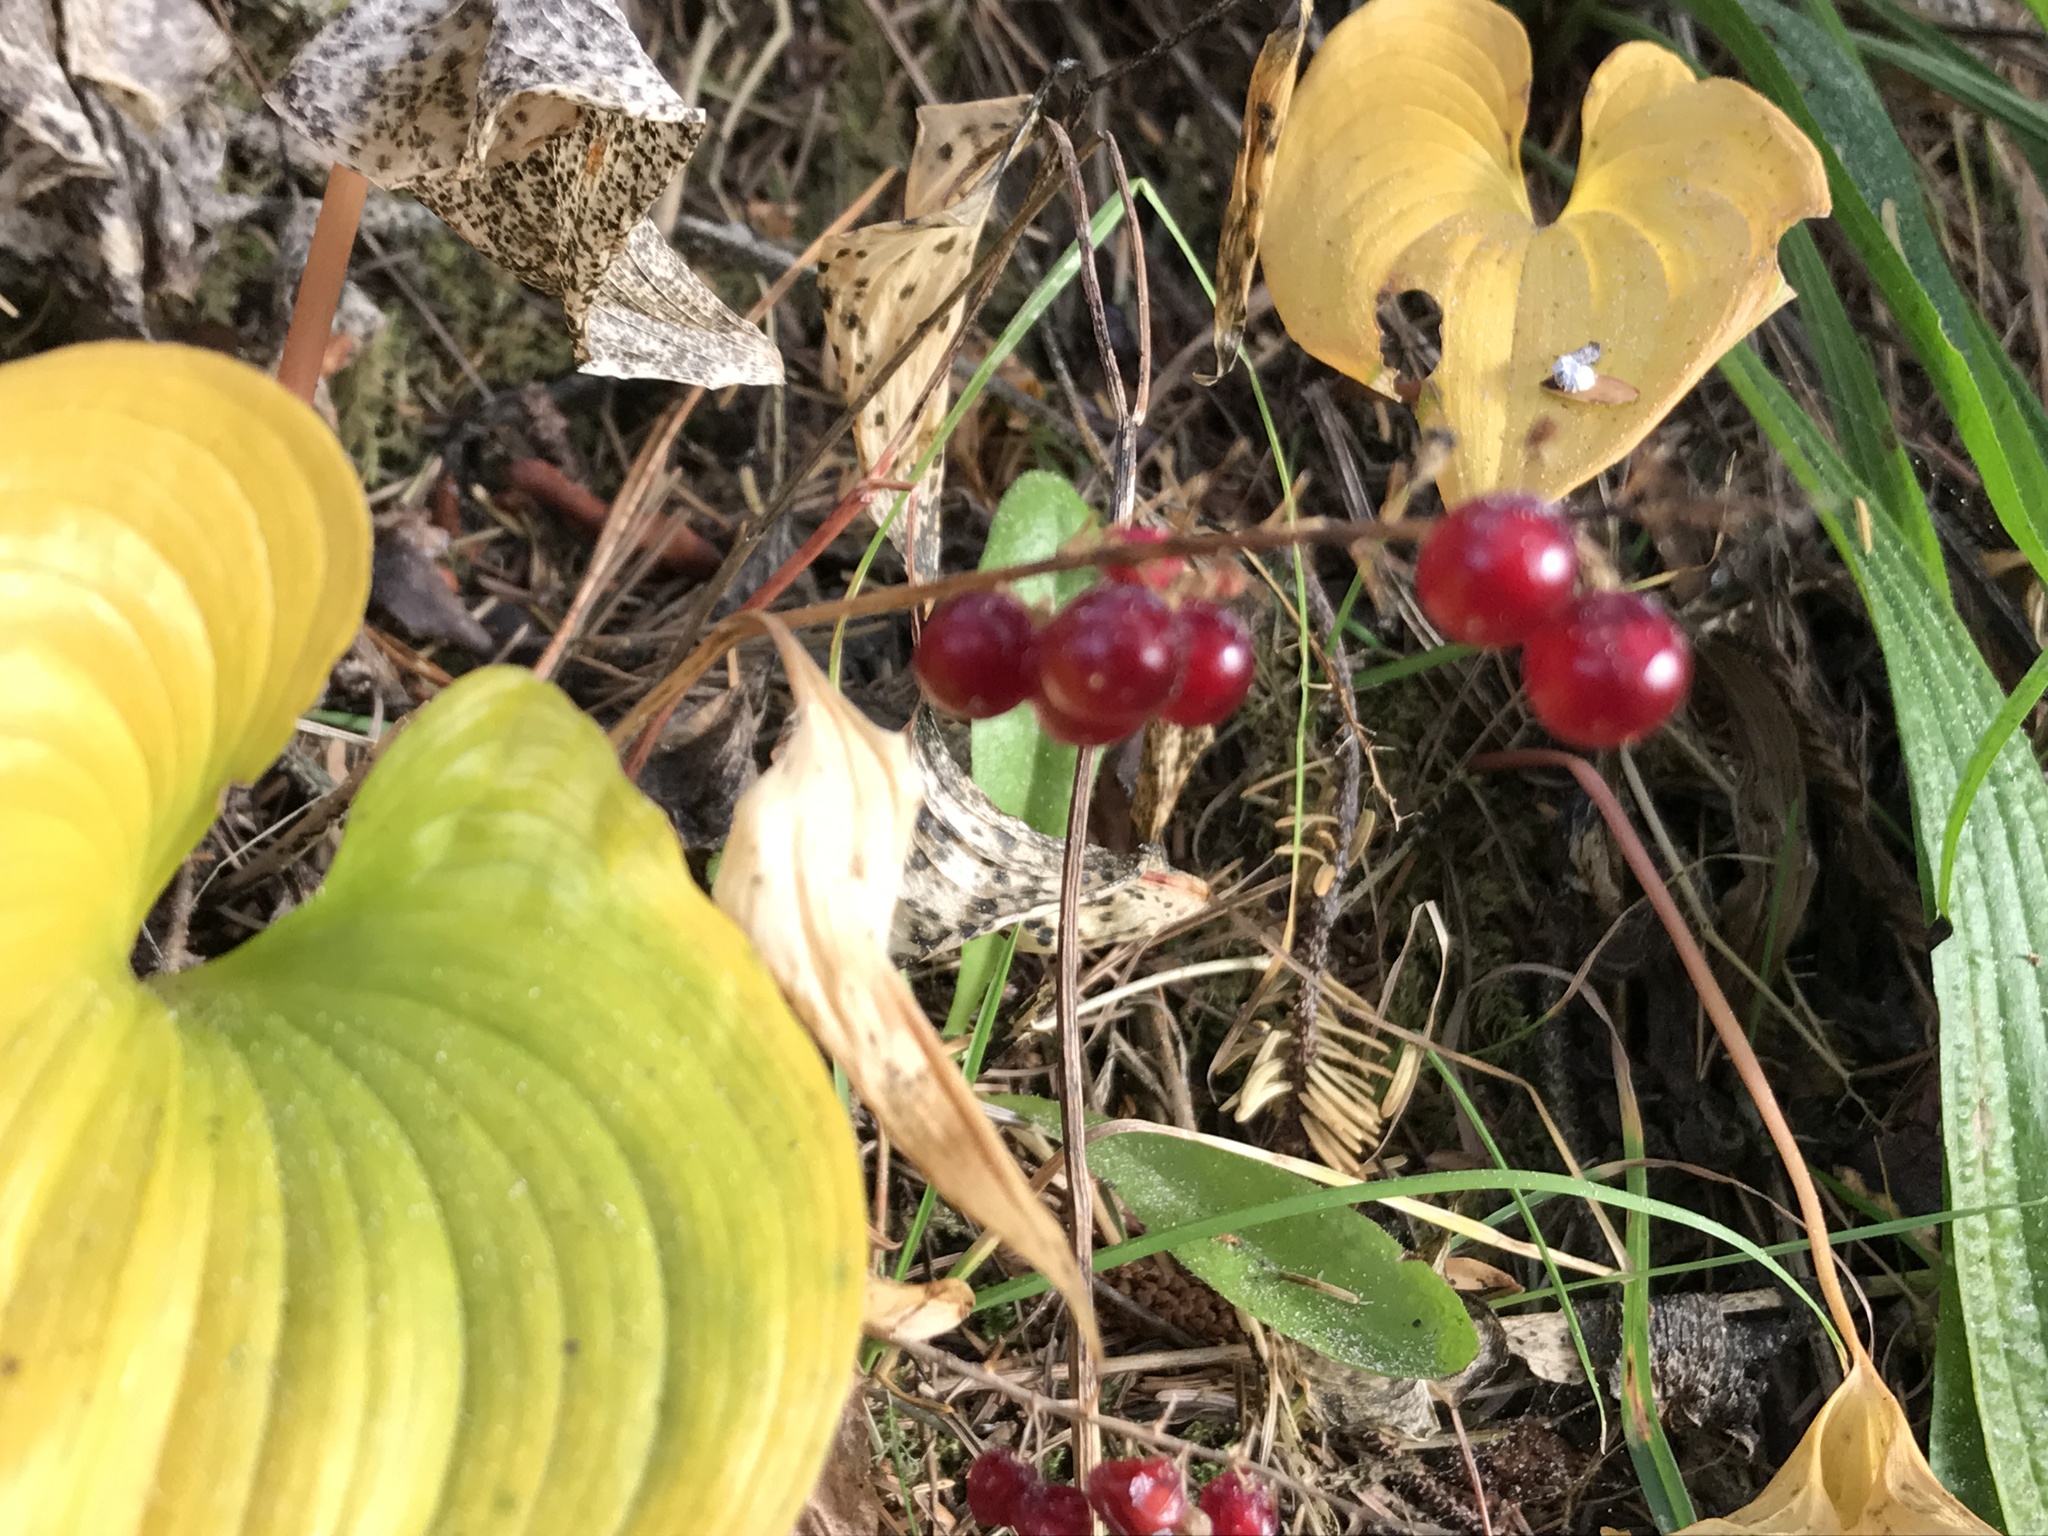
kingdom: Plantae
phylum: Tracheophyta
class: Liliopsida
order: Asparagales
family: Asparagaceae
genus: Maianthemum
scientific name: Maianthemum dilatatum
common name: False lily-of-the-valley
